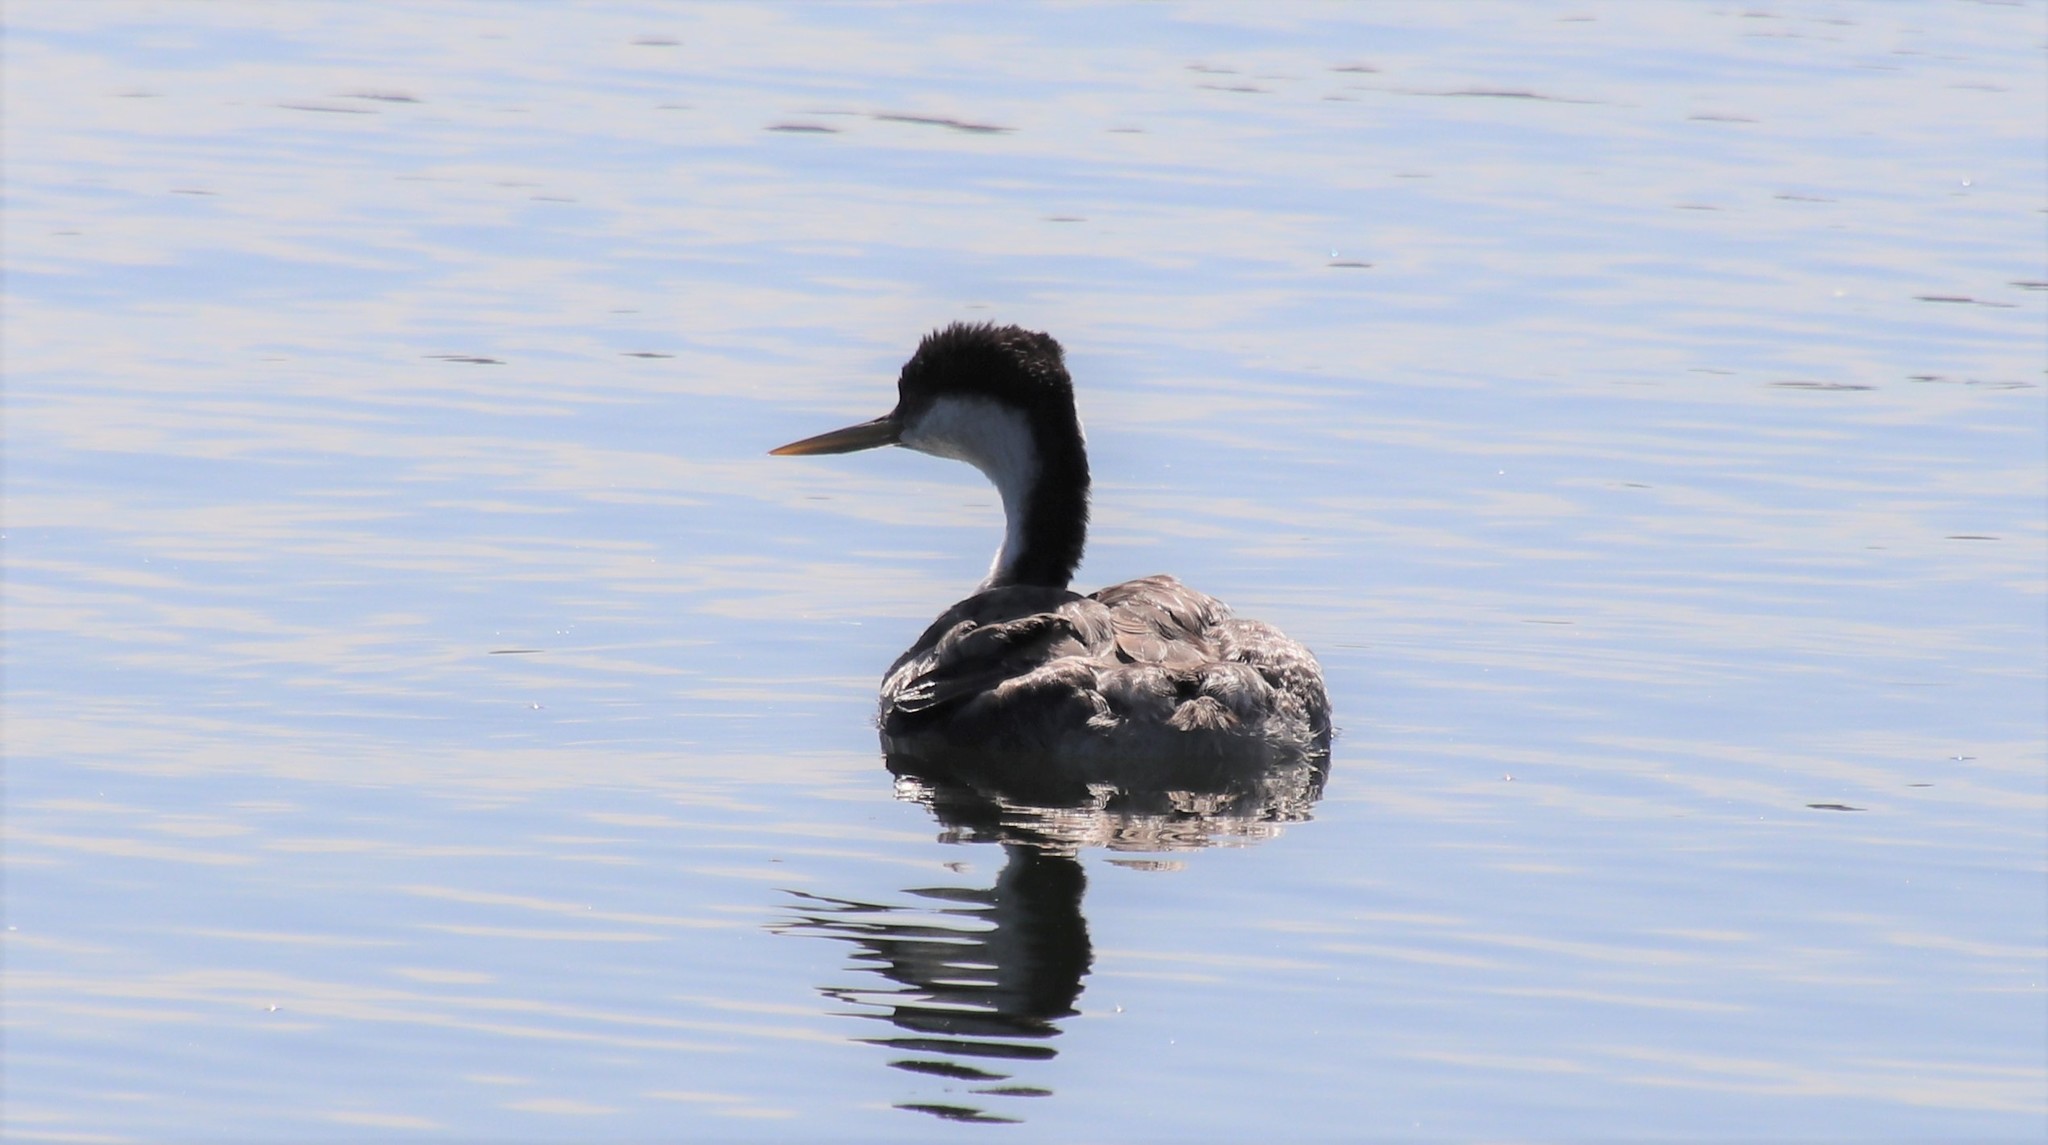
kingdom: Animalia
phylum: Chordata
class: Aves
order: Podicipediformes
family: Podicipedidae
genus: Aechmophorus
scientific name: Aechmophorus occidentalis
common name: Western grebe
